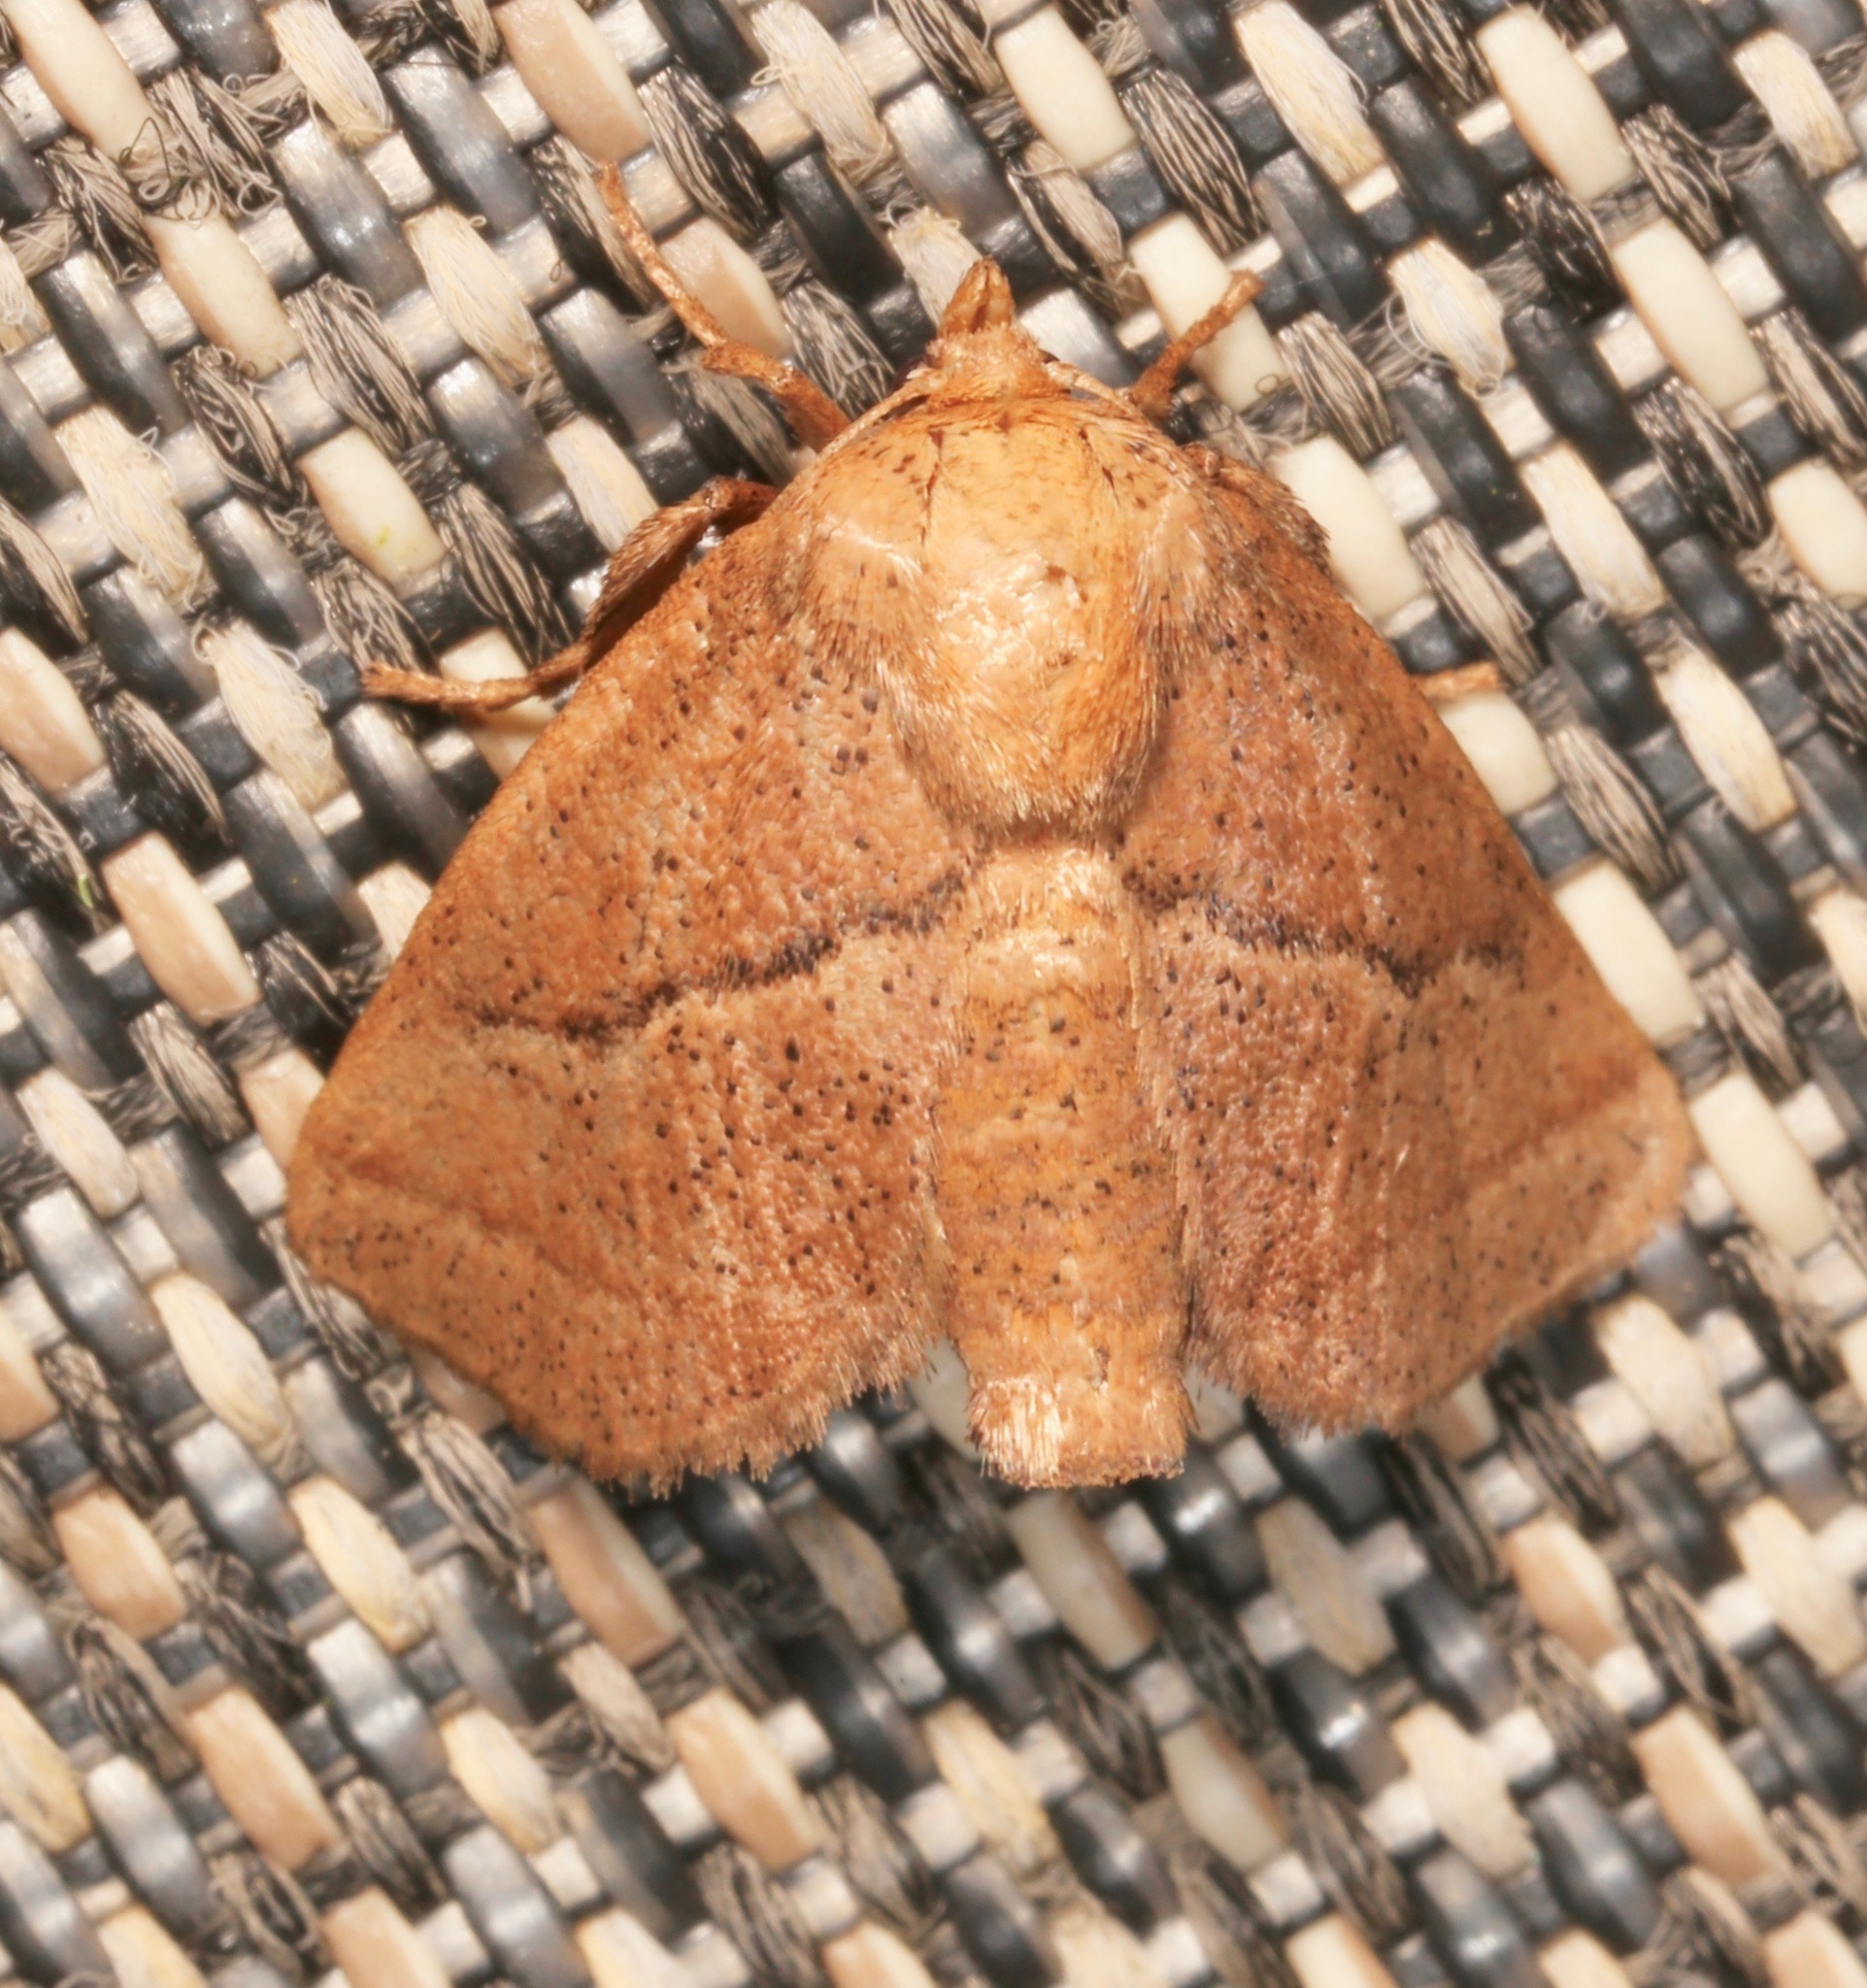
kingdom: Animalia
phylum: Arthropoda
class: Insecta
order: Lepidoptera
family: Limacodidae
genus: Natada
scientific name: Natada nasoni
